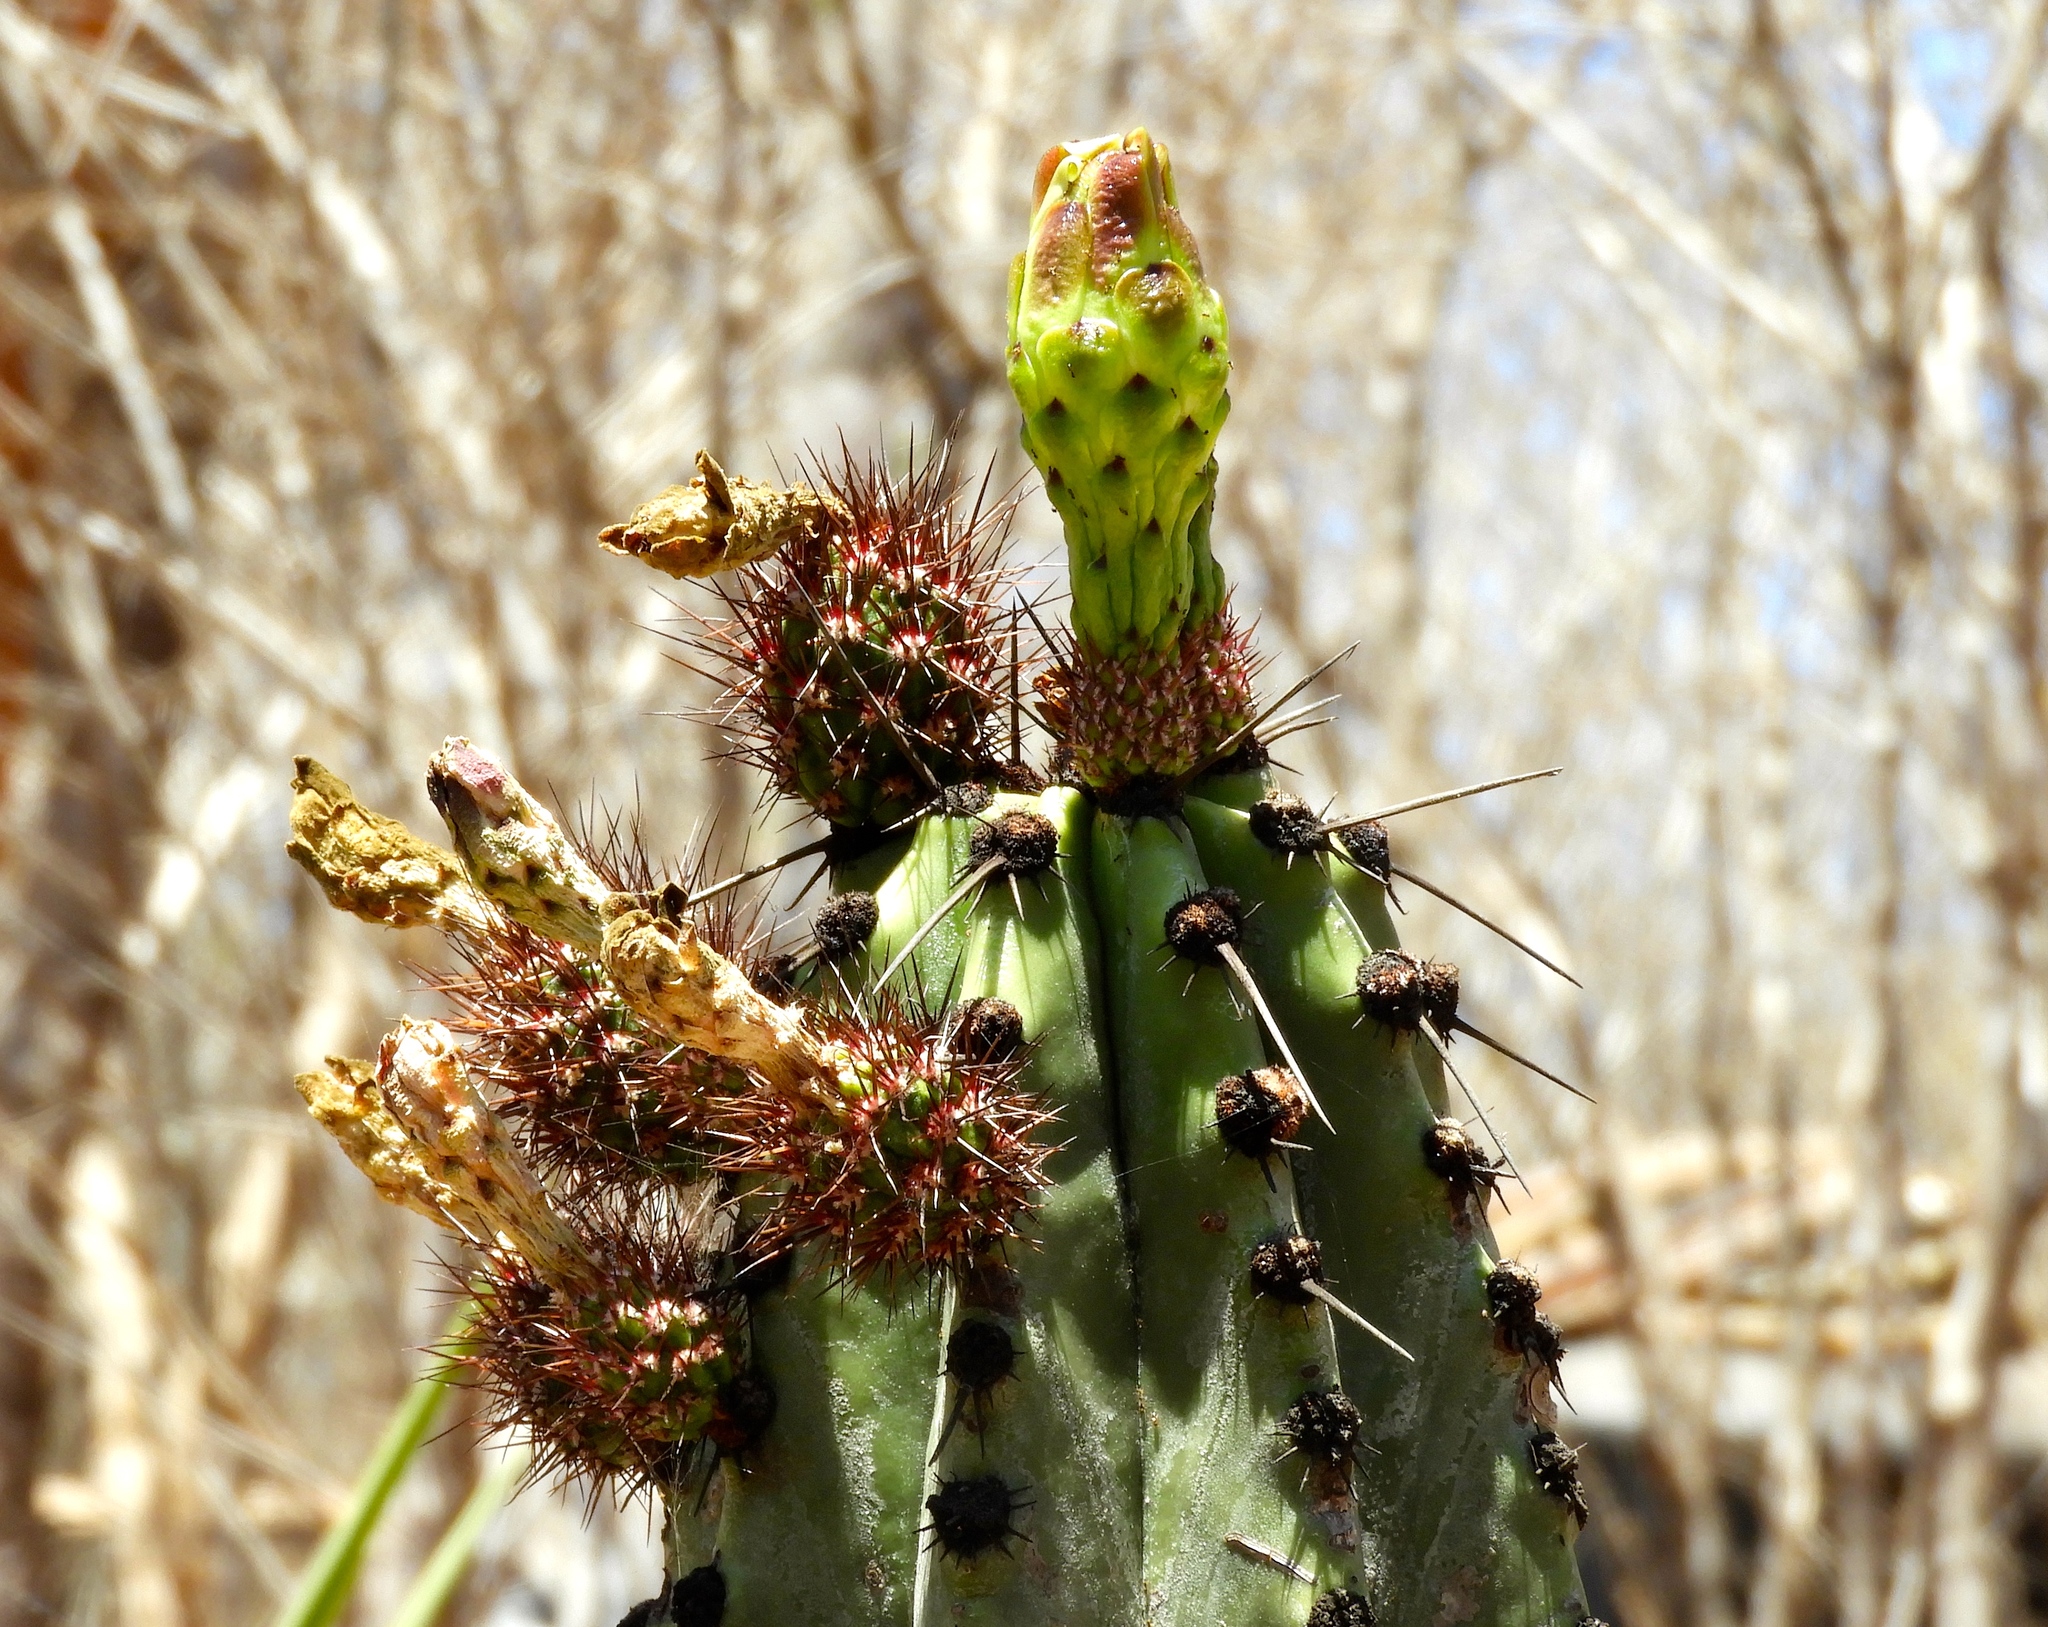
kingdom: Plantae
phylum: Tracheophyta
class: Magnoliopsida
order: Caryophyllales
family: Cactaceae
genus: Stenocereus
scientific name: Stenocereus martinezii
